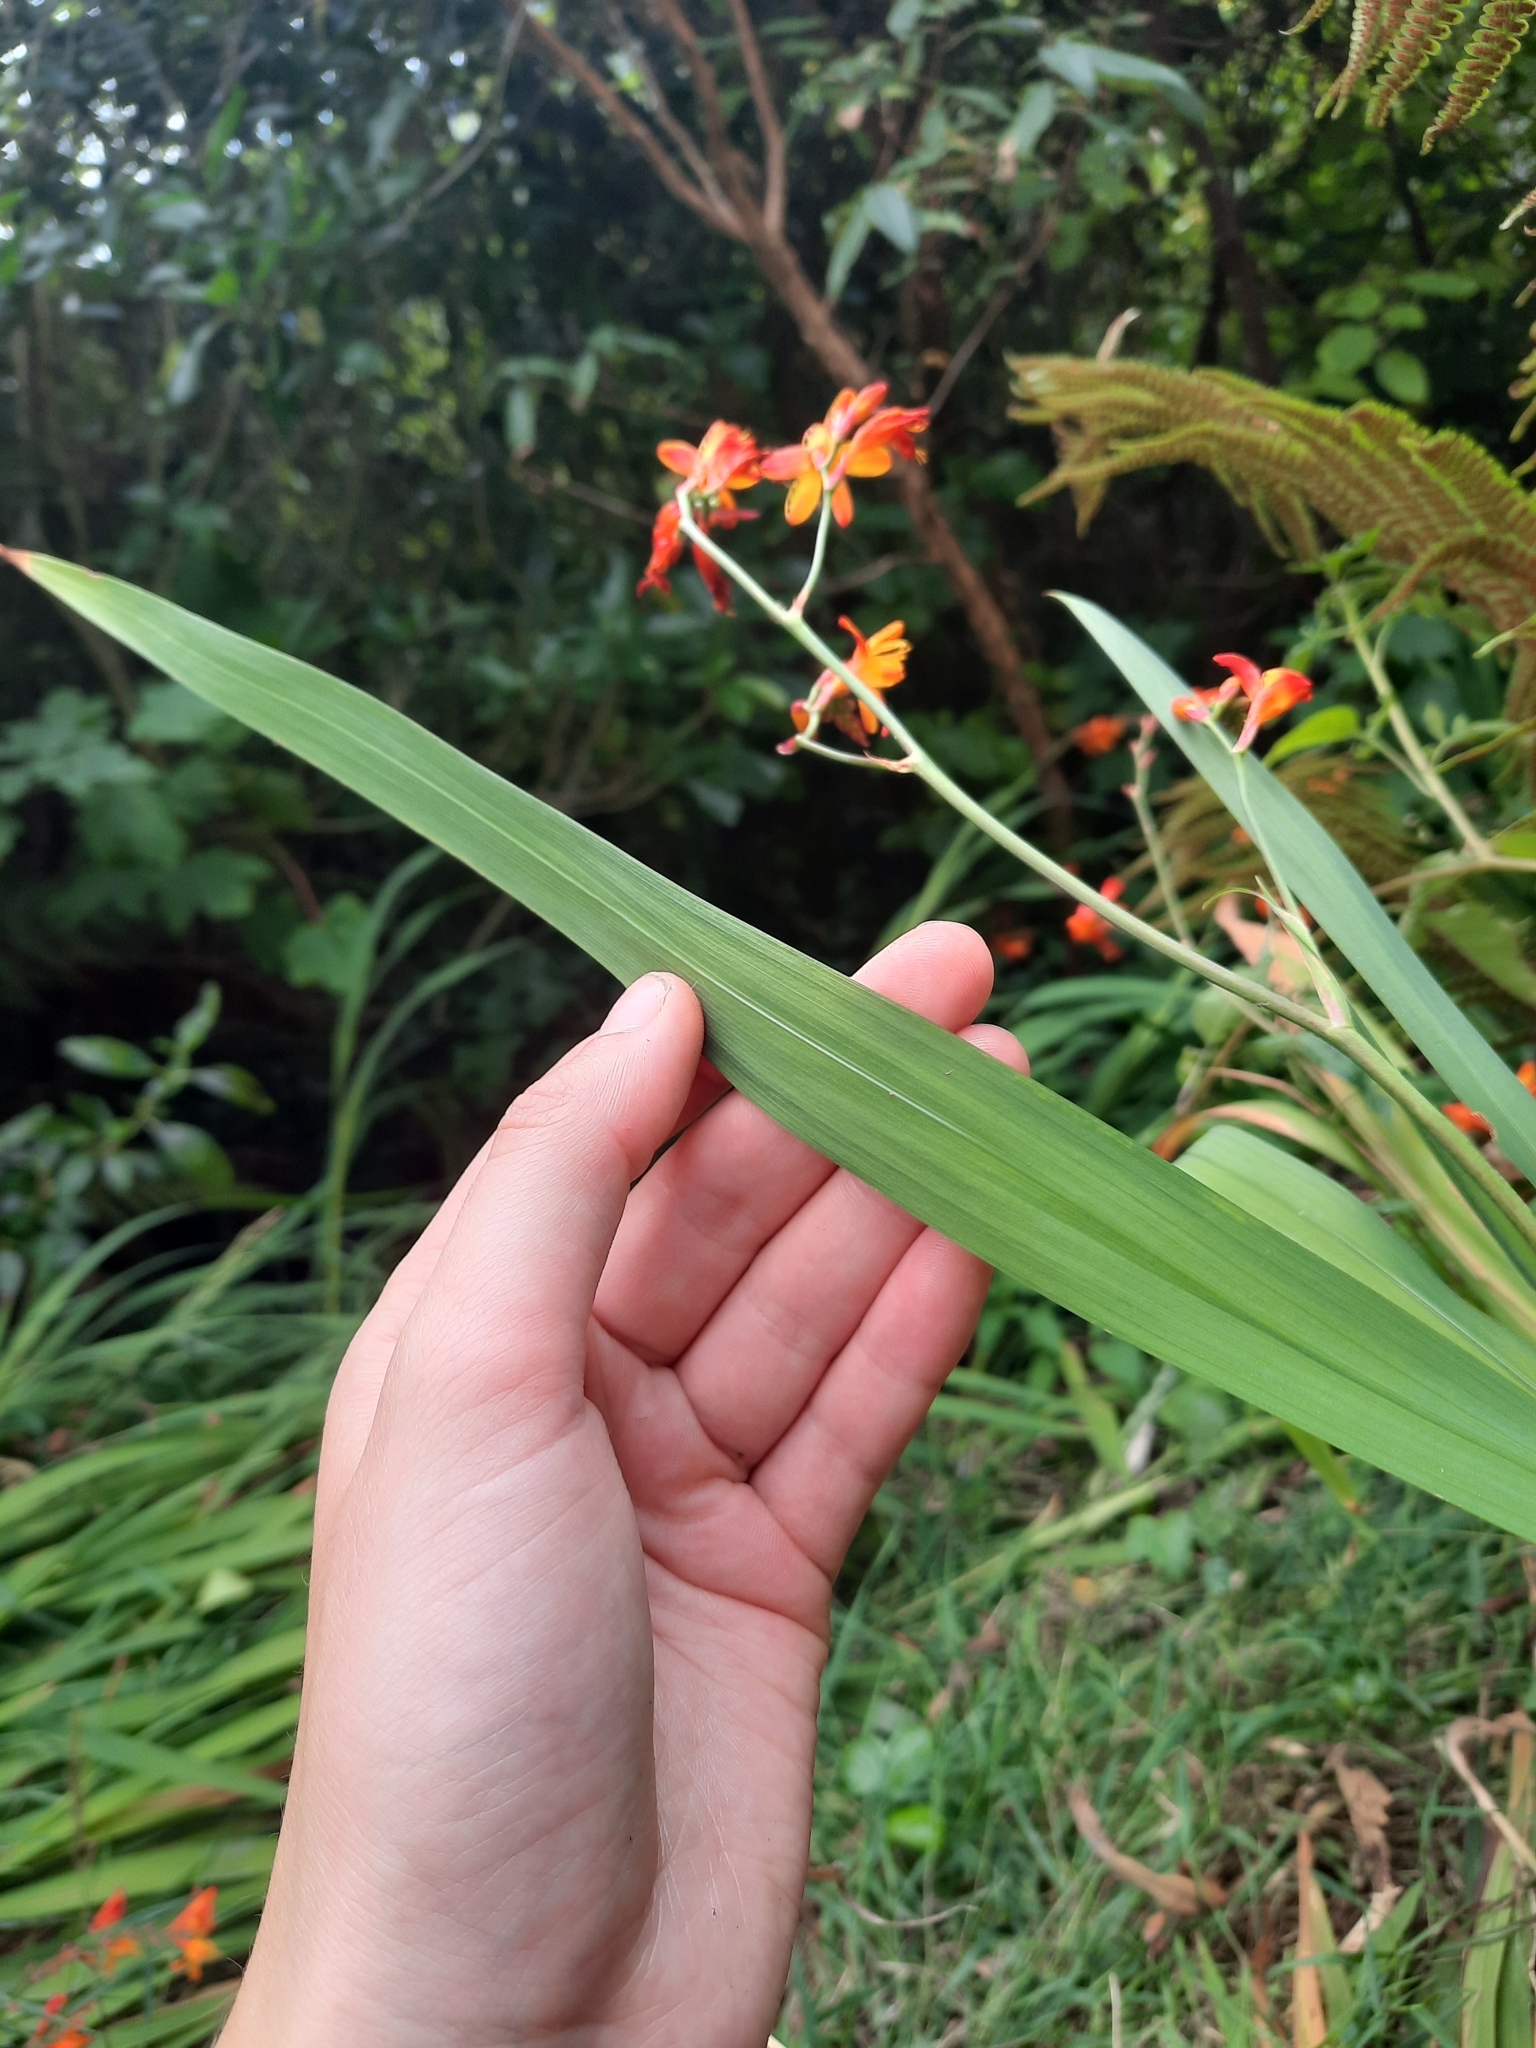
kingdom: Plantae
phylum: Tracheophyta
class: Liliopsida
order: Asparagales
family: Iridaceae
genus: Crocosmia
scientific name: Crocosmia crocosmiiflora
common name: Montbretia
